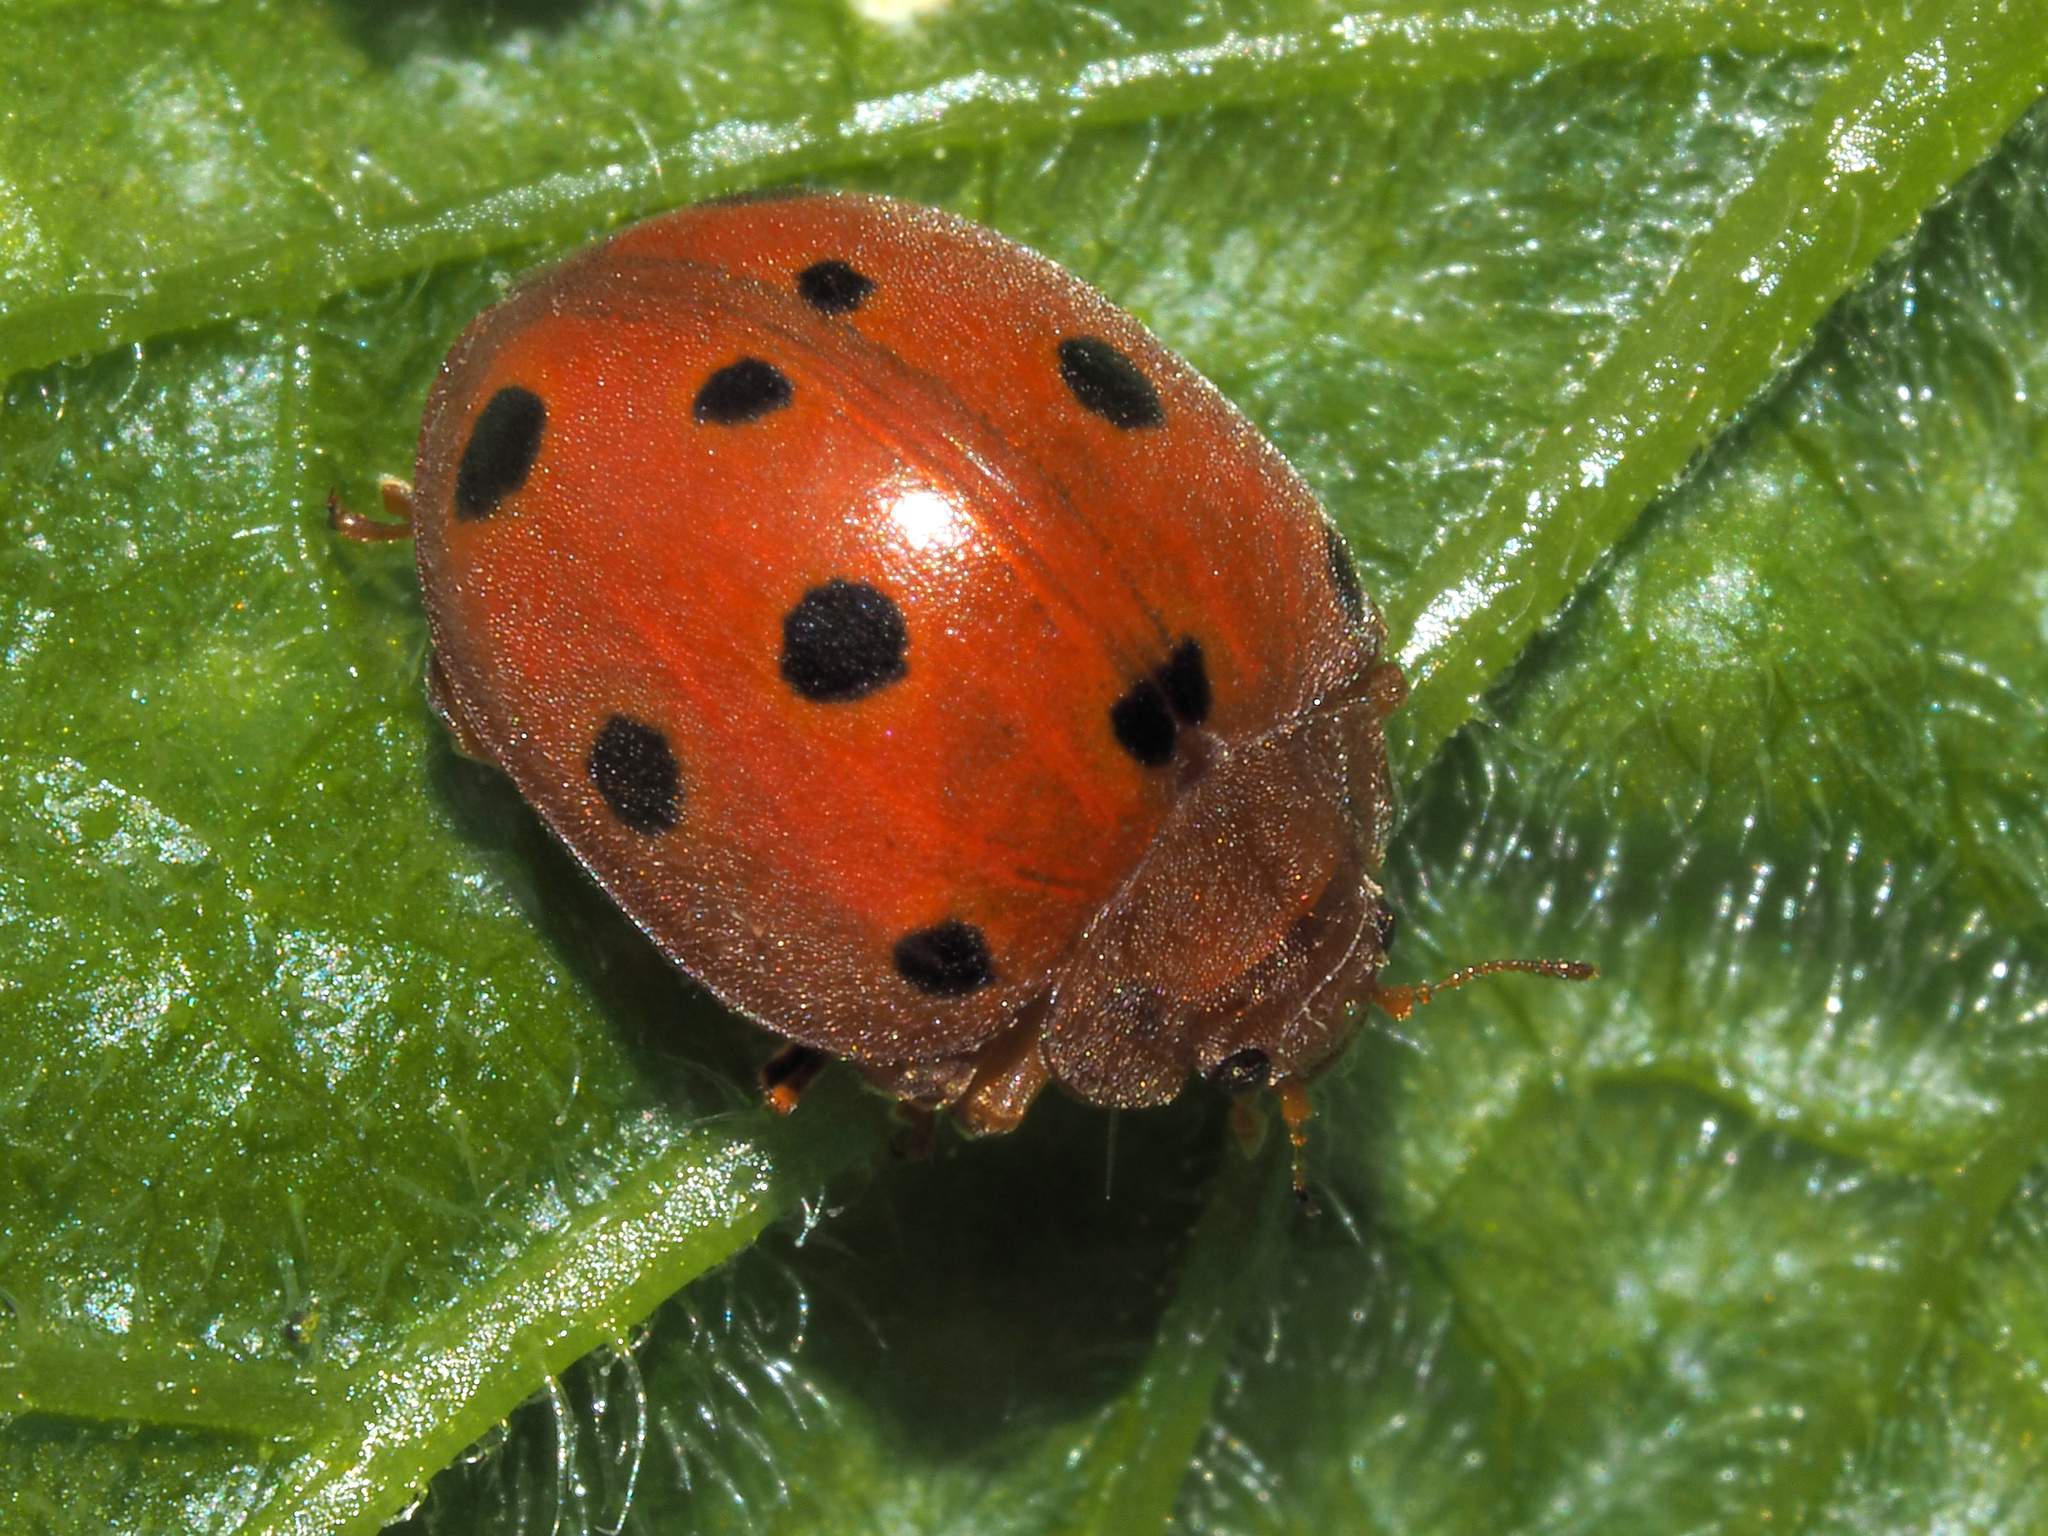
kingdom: Animalia
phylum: Arthropoda
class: Insecta
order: Coleoptera
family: Coccinellidae
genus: Henosepilachna
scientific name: Henosepilachna argus
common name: Bryony ladybird
